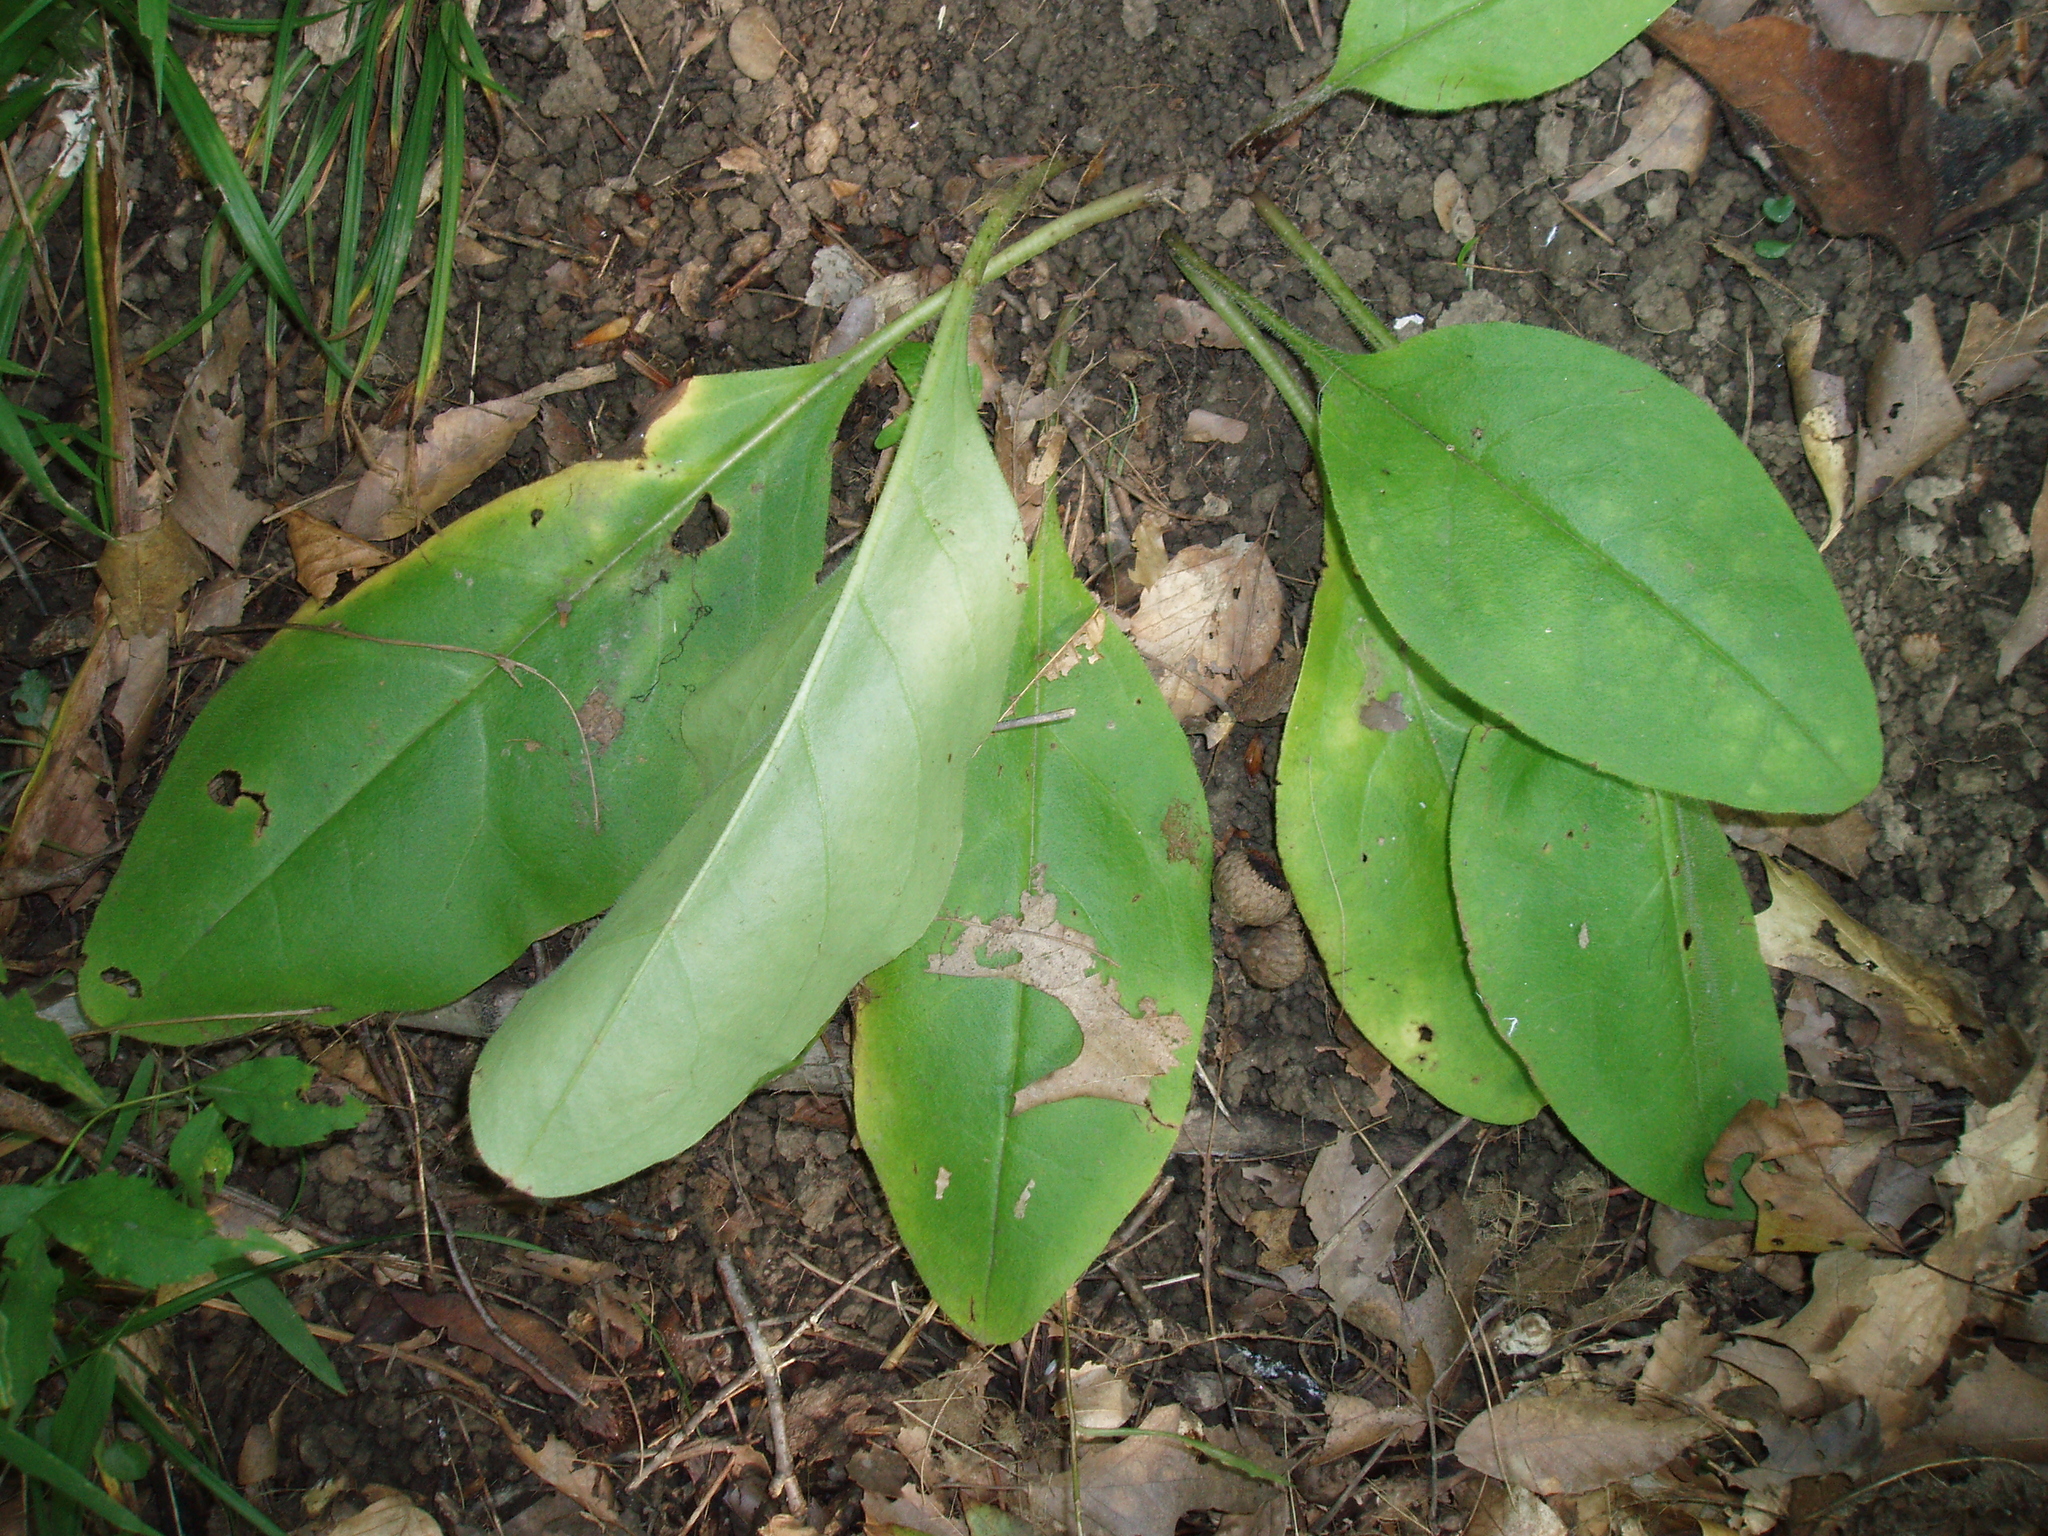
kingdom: Plantae
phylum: Tracheophyta
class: Magnoliopsida
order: Boraginales
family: Boraginaceae
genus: Andersonglossum
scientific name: Andersonglossum virginianum
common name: Wild comfrey
